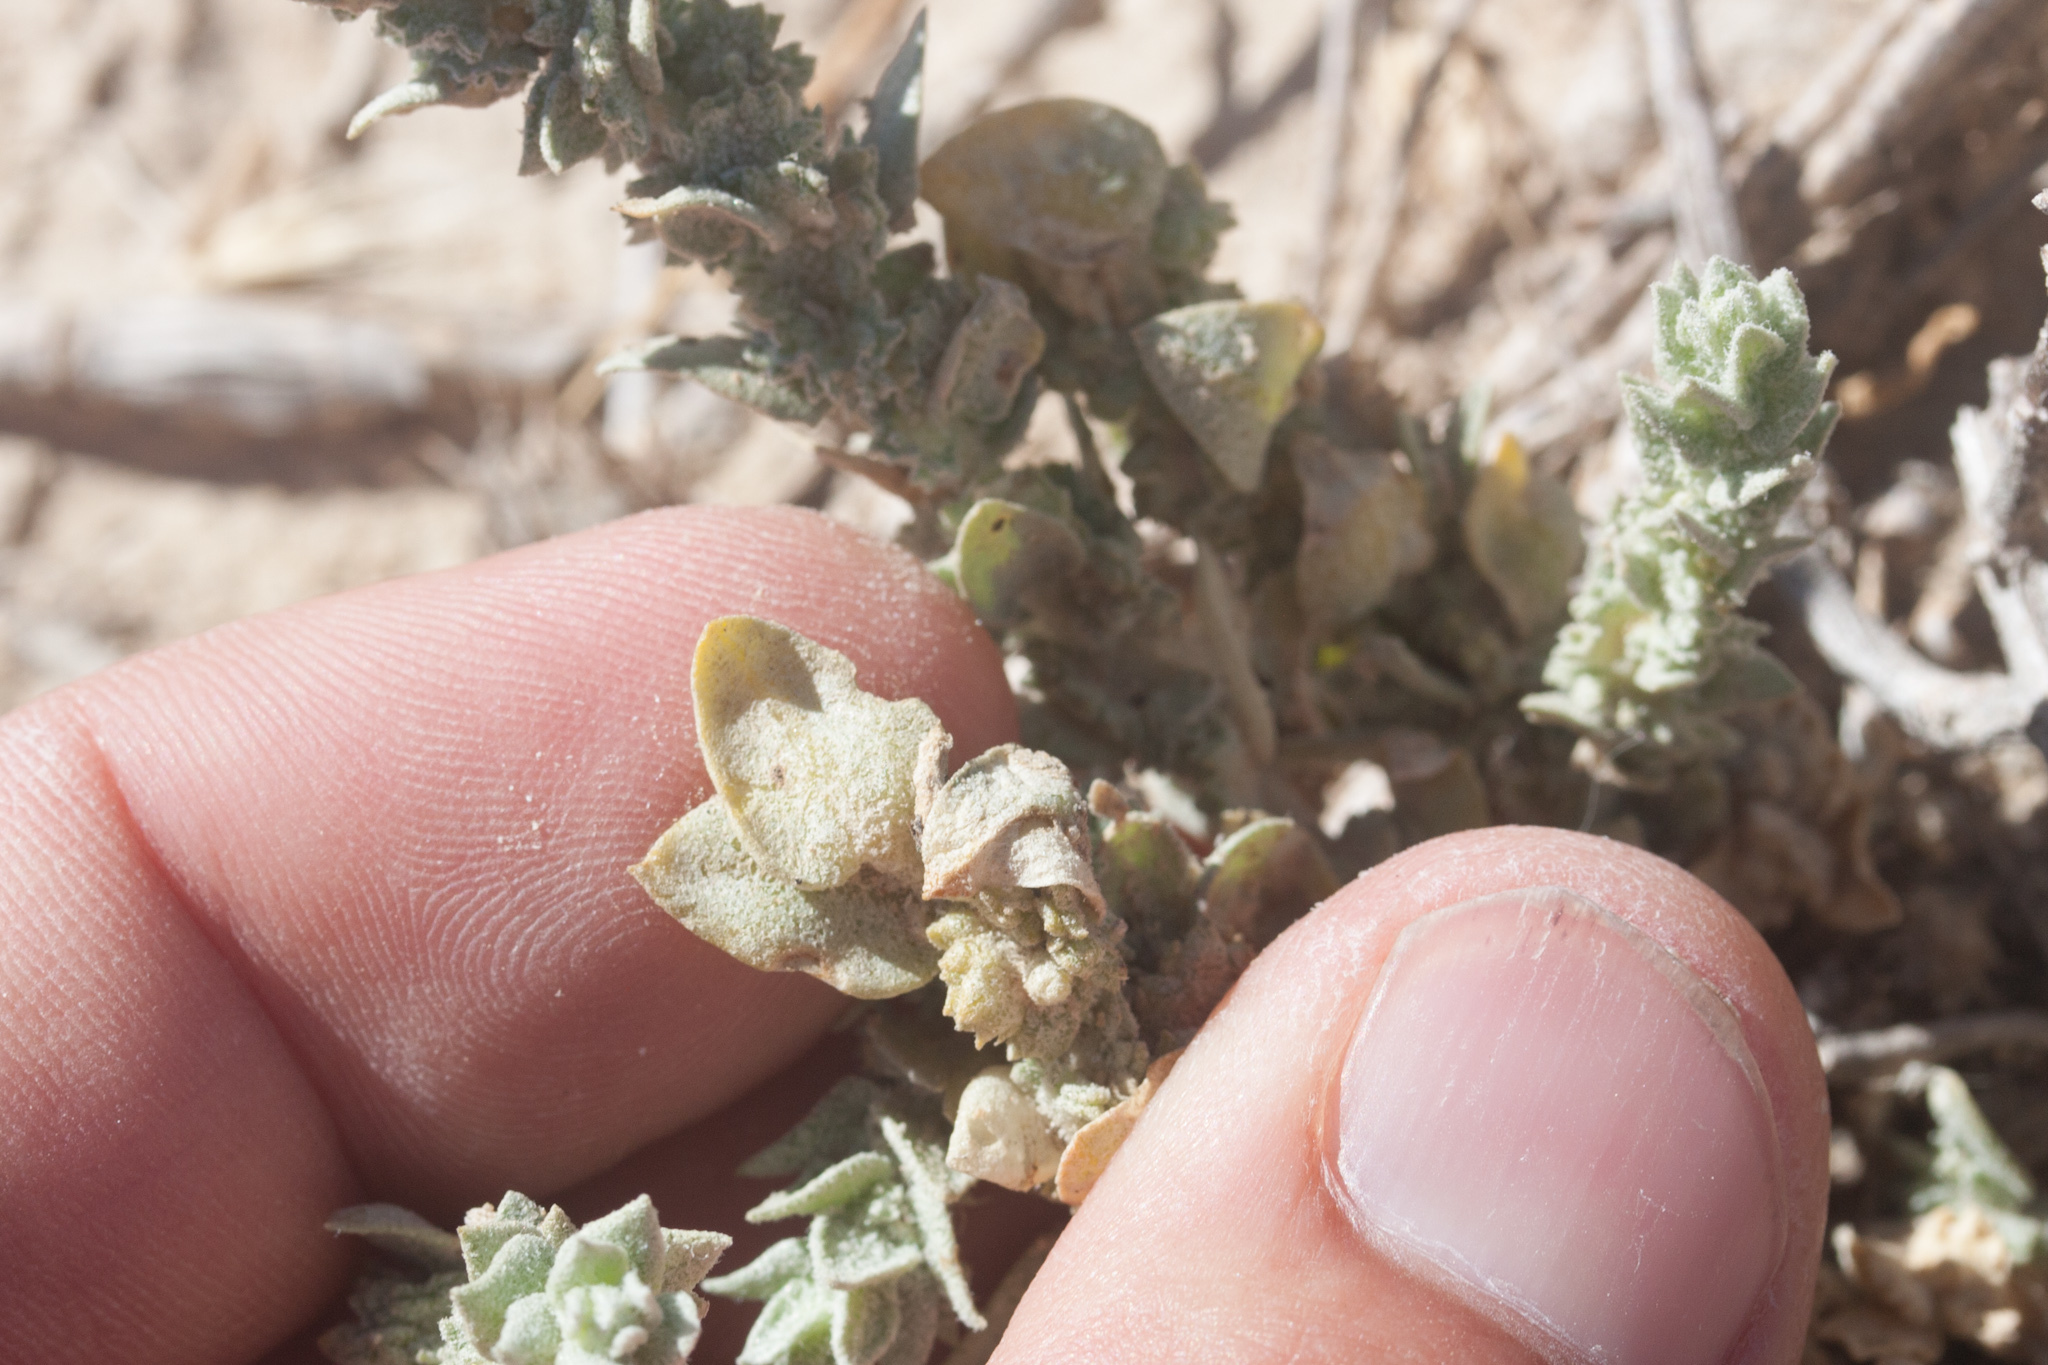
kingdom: Plantae
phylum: Tracheophyta
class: Magnoliopsida
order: Caryophyllales
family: Amaranthaceae
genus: Atriplex
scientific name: Atriplex fruticulosa
